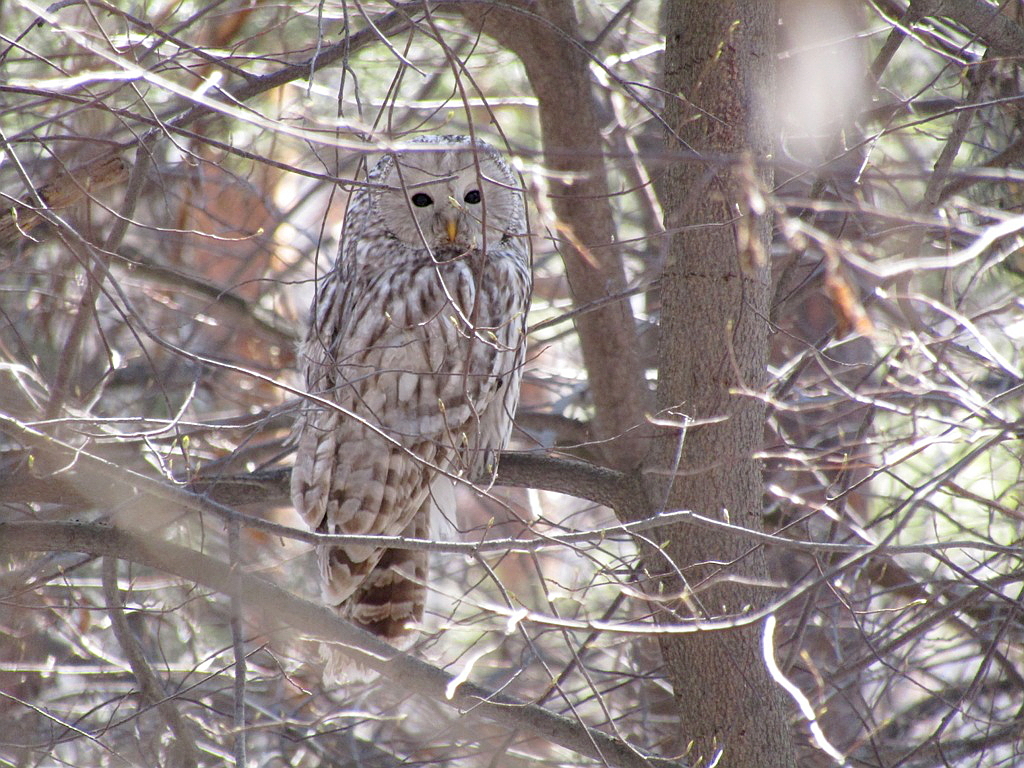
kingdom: Animalia
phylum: Chordata
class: Aves
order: Strigiformes
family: Strigidae
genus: Strix
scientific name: Strix uralensis
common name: Ural owl
